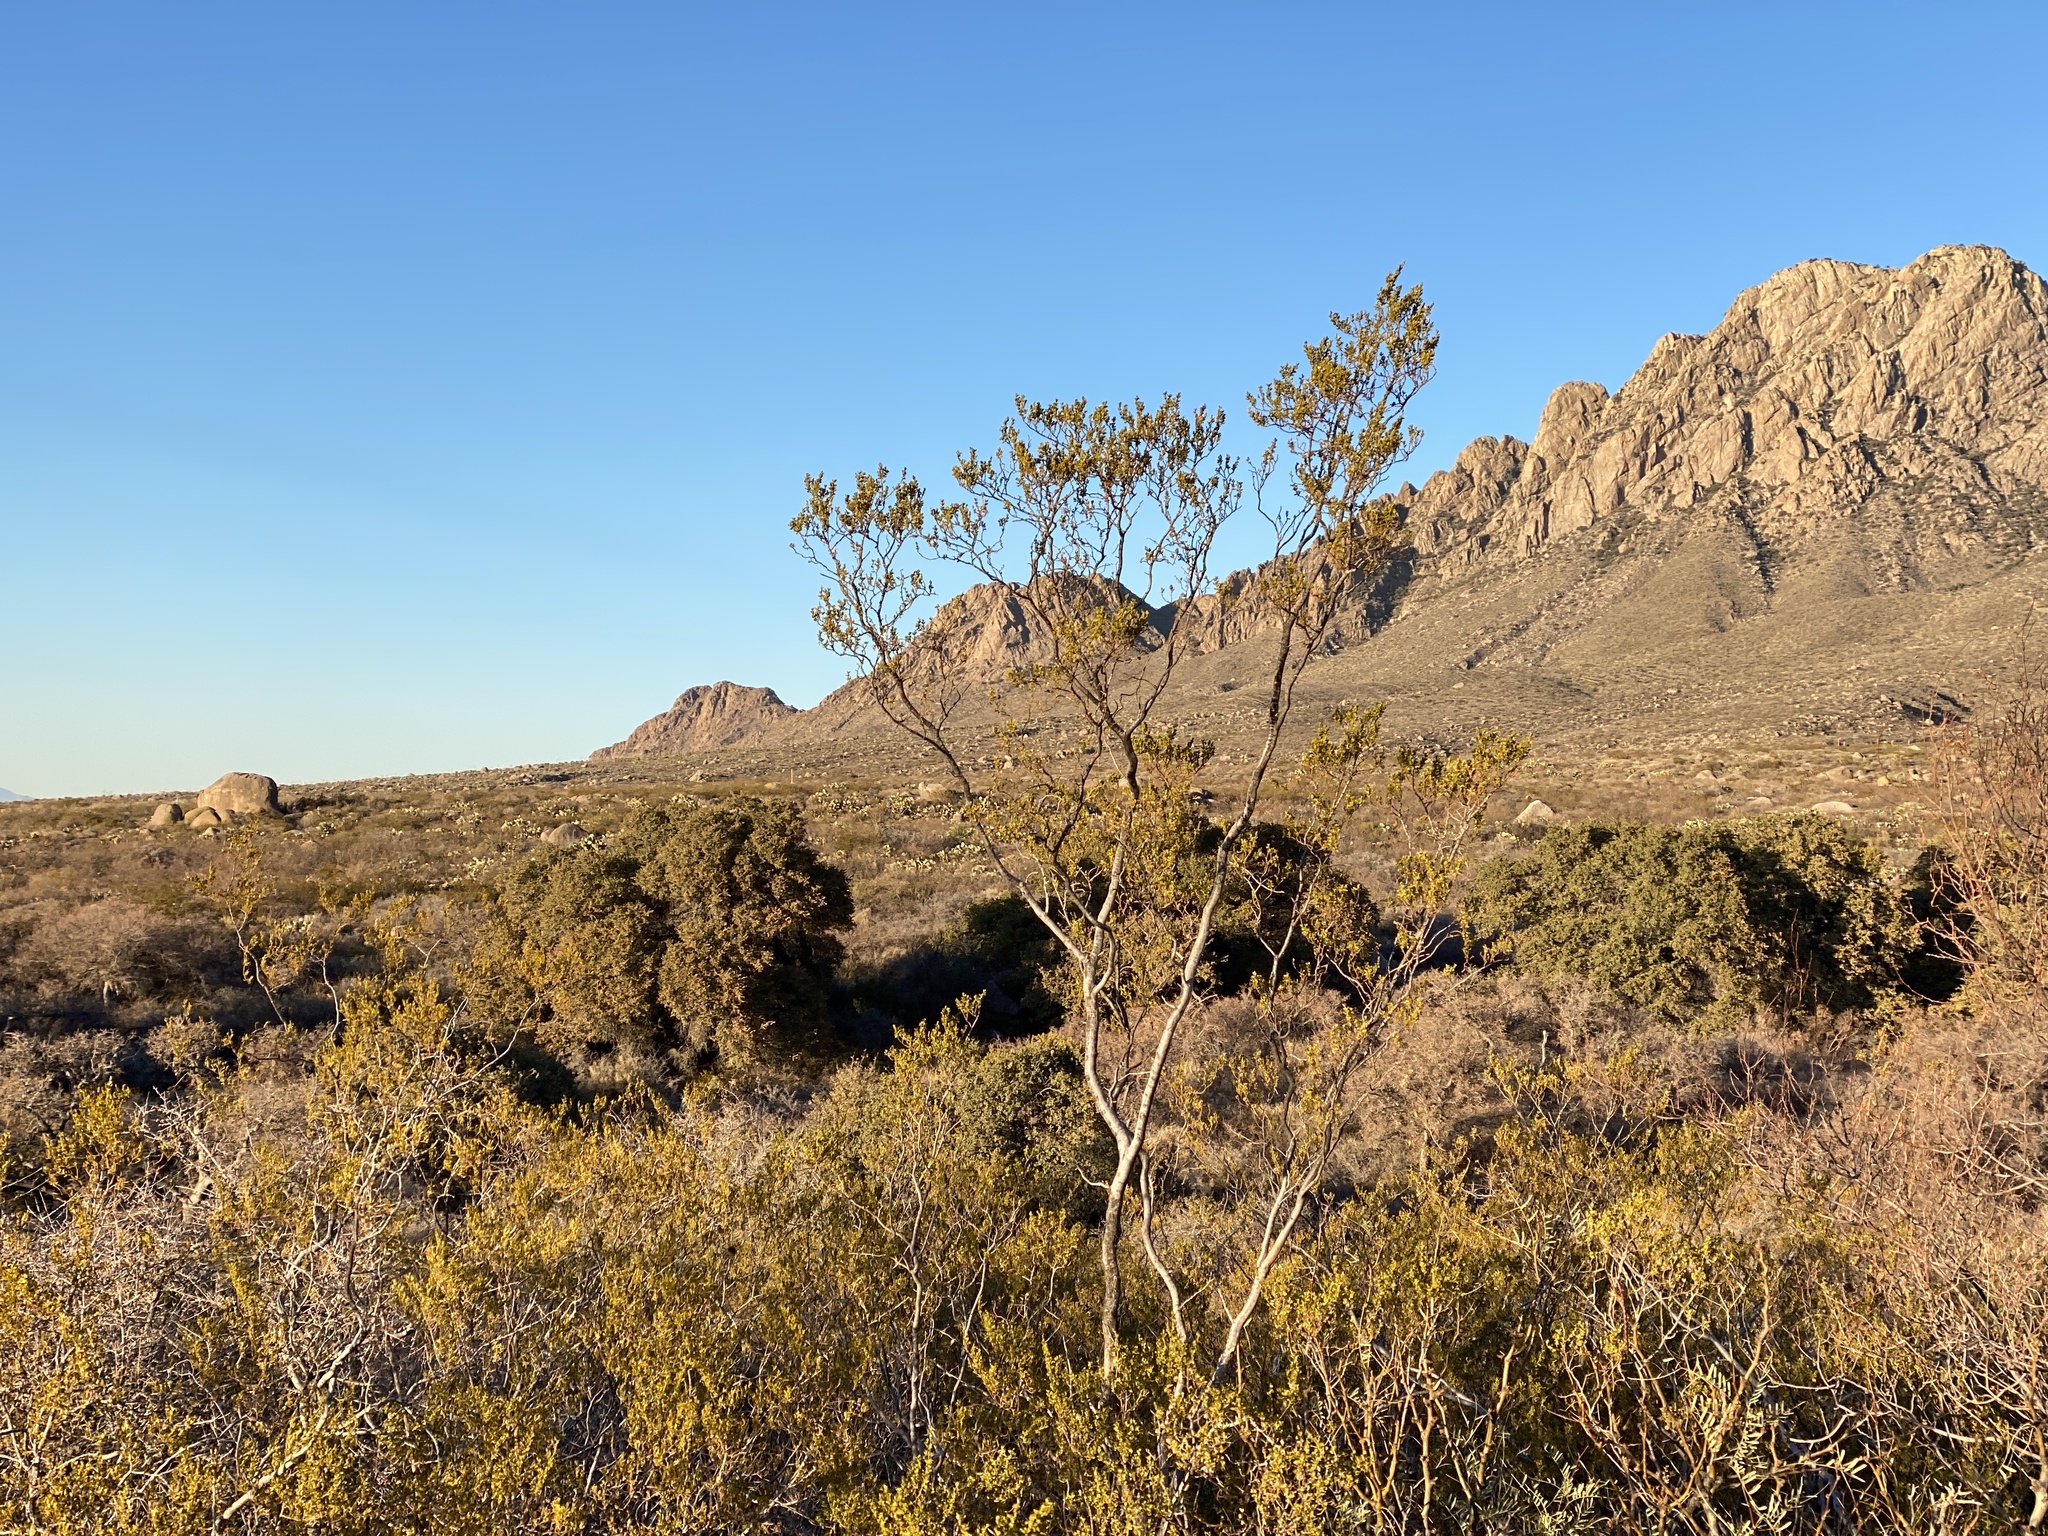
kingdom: Plantae
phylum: Tracheophyta
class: Magnoliopsida
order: Zygophyllales
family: Zygophyllaceae
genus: Larrea
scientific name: Larrea tridentata
